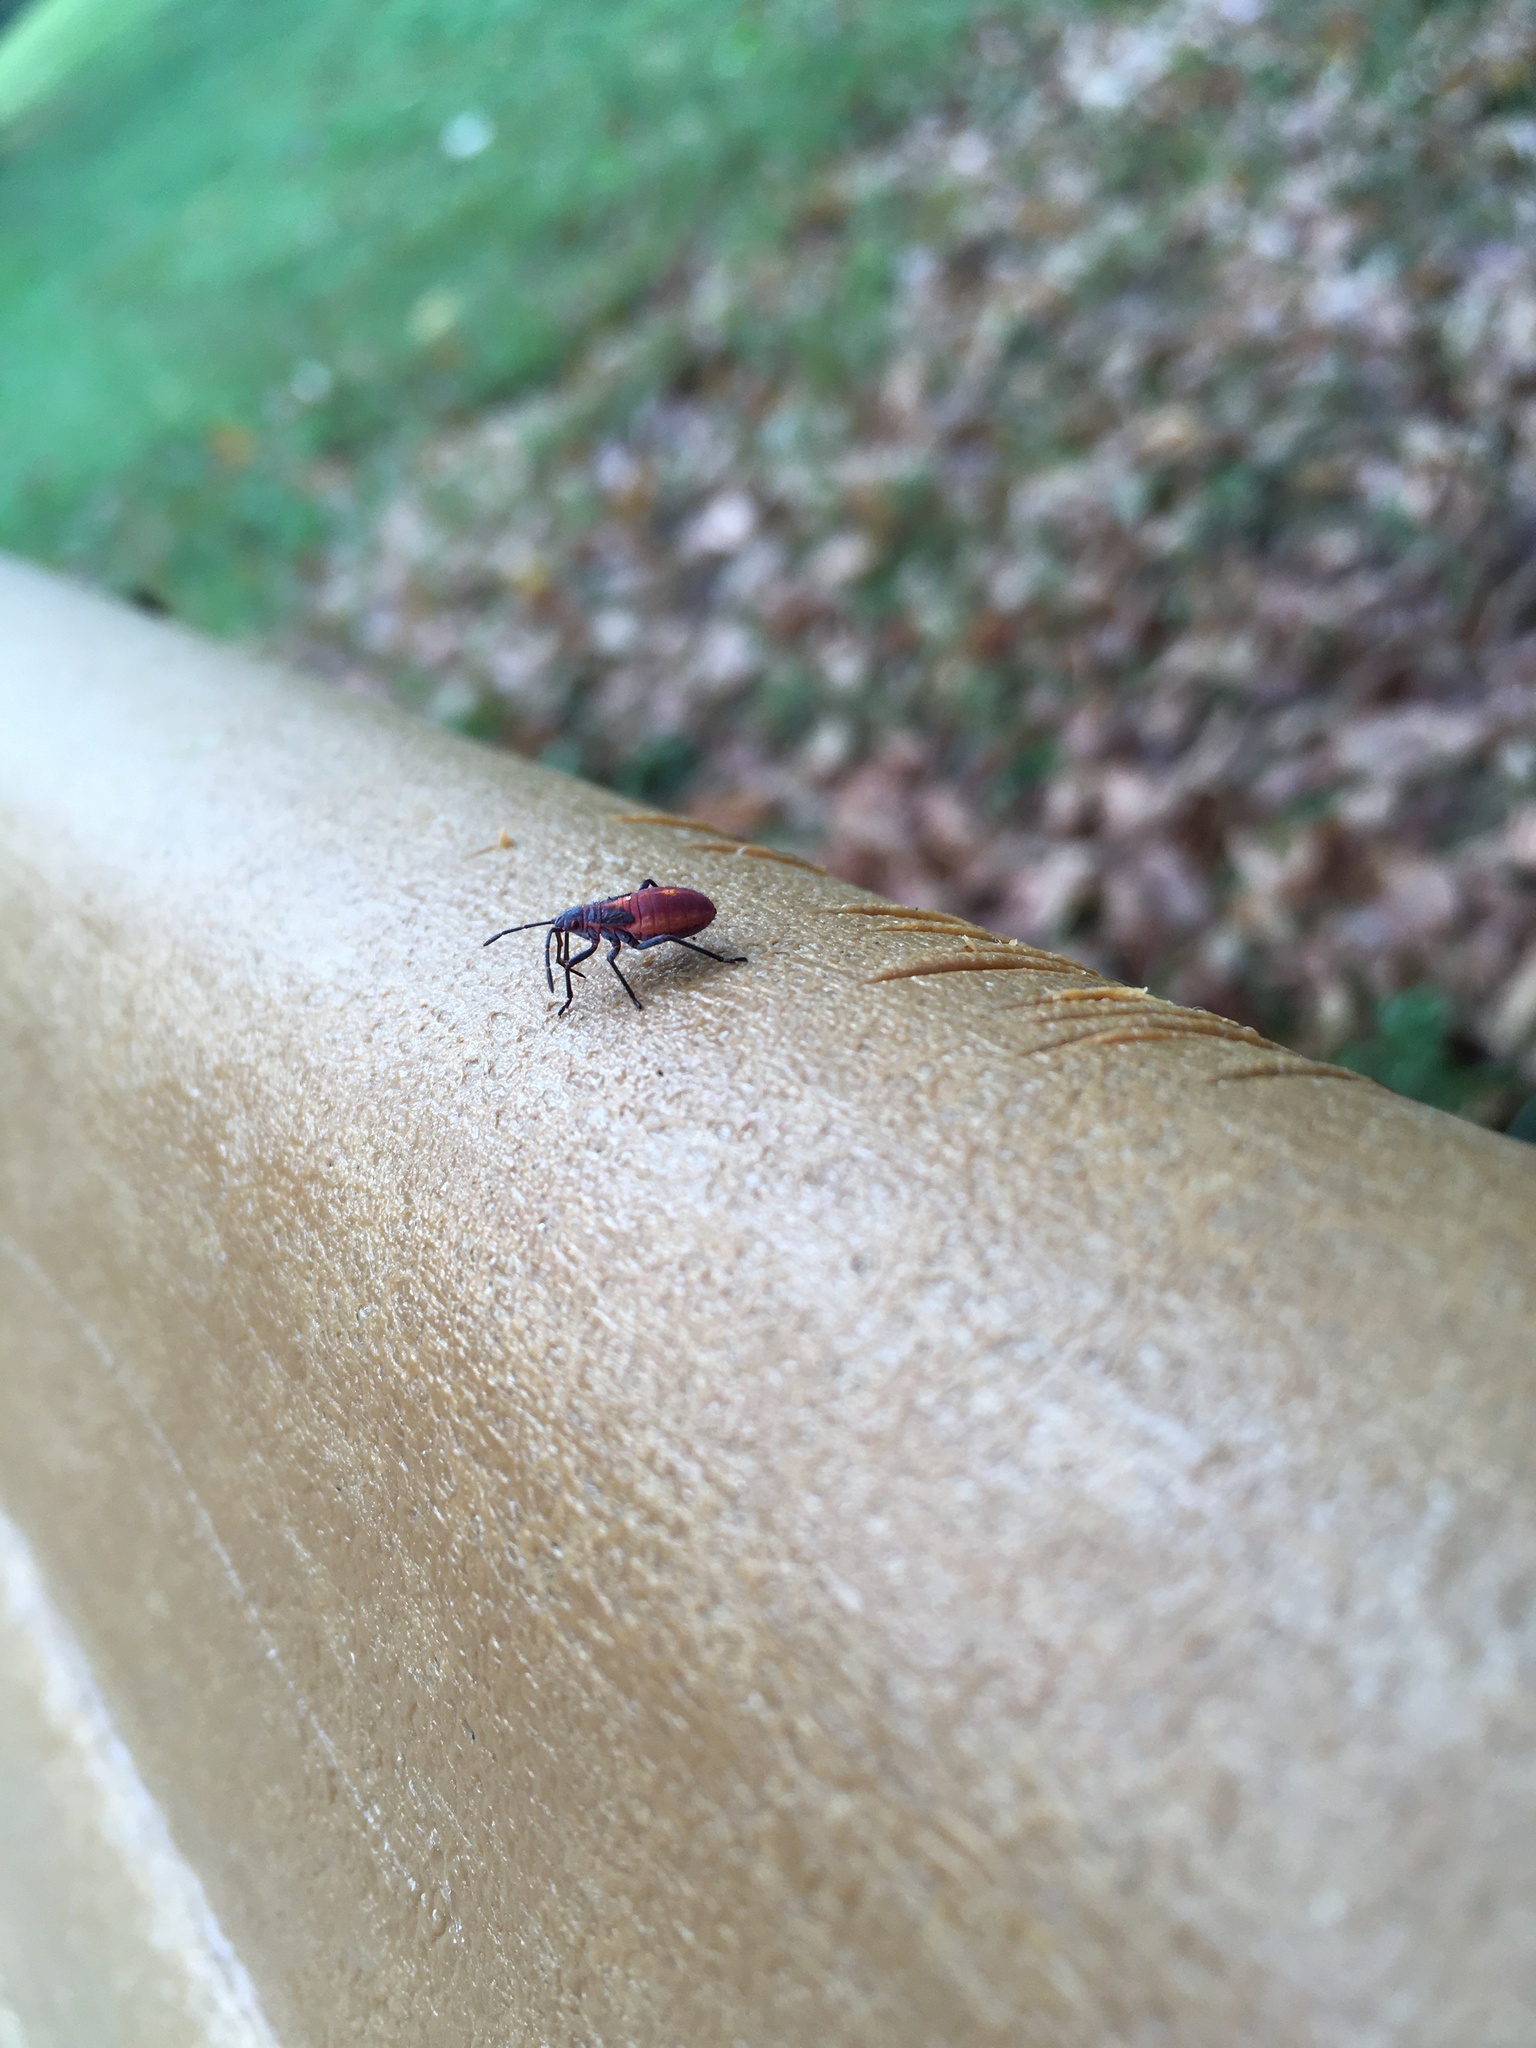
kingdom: Animalia
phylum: Arthropoda
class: Insecta
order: Hemiptera
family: Rhopalidae
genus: Boisea
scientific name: Boisea trivittata
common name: Boxelder bug
